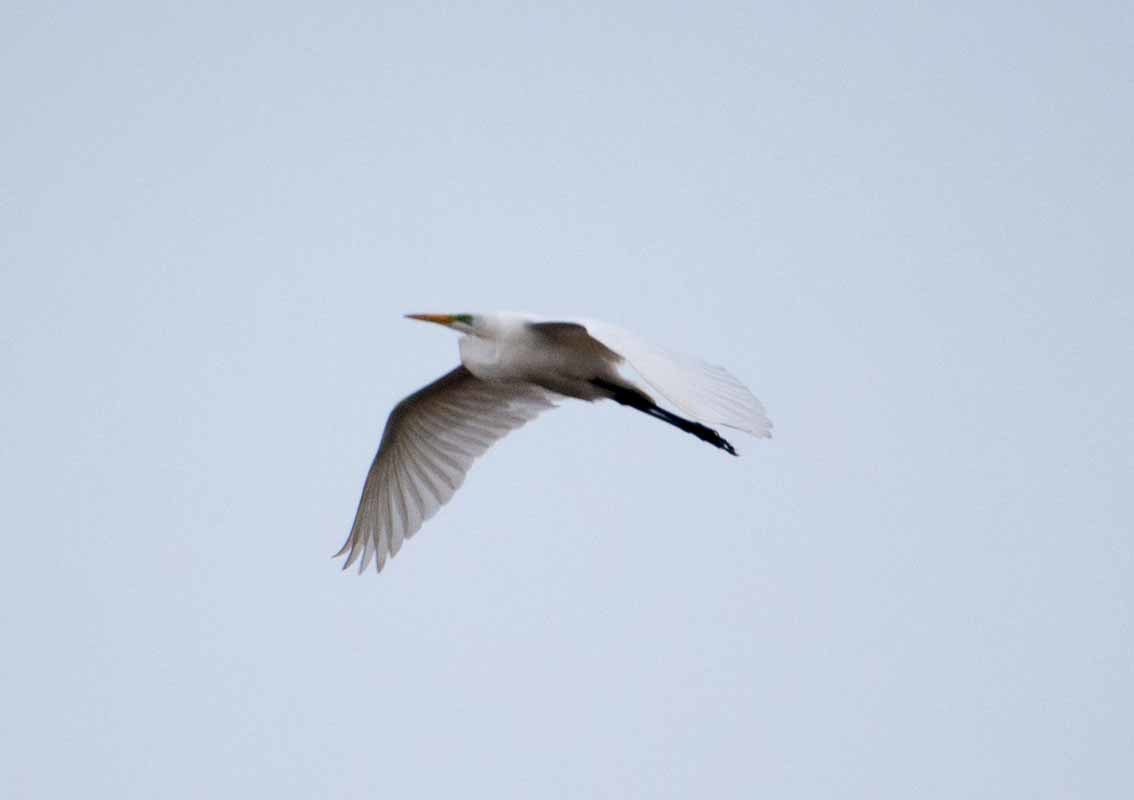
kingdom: Animalia
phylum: Chordata
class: Aves
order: Pelecaniformes
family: Ardeidae
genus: Ardea
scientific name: Ardea alba
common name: Great egret
